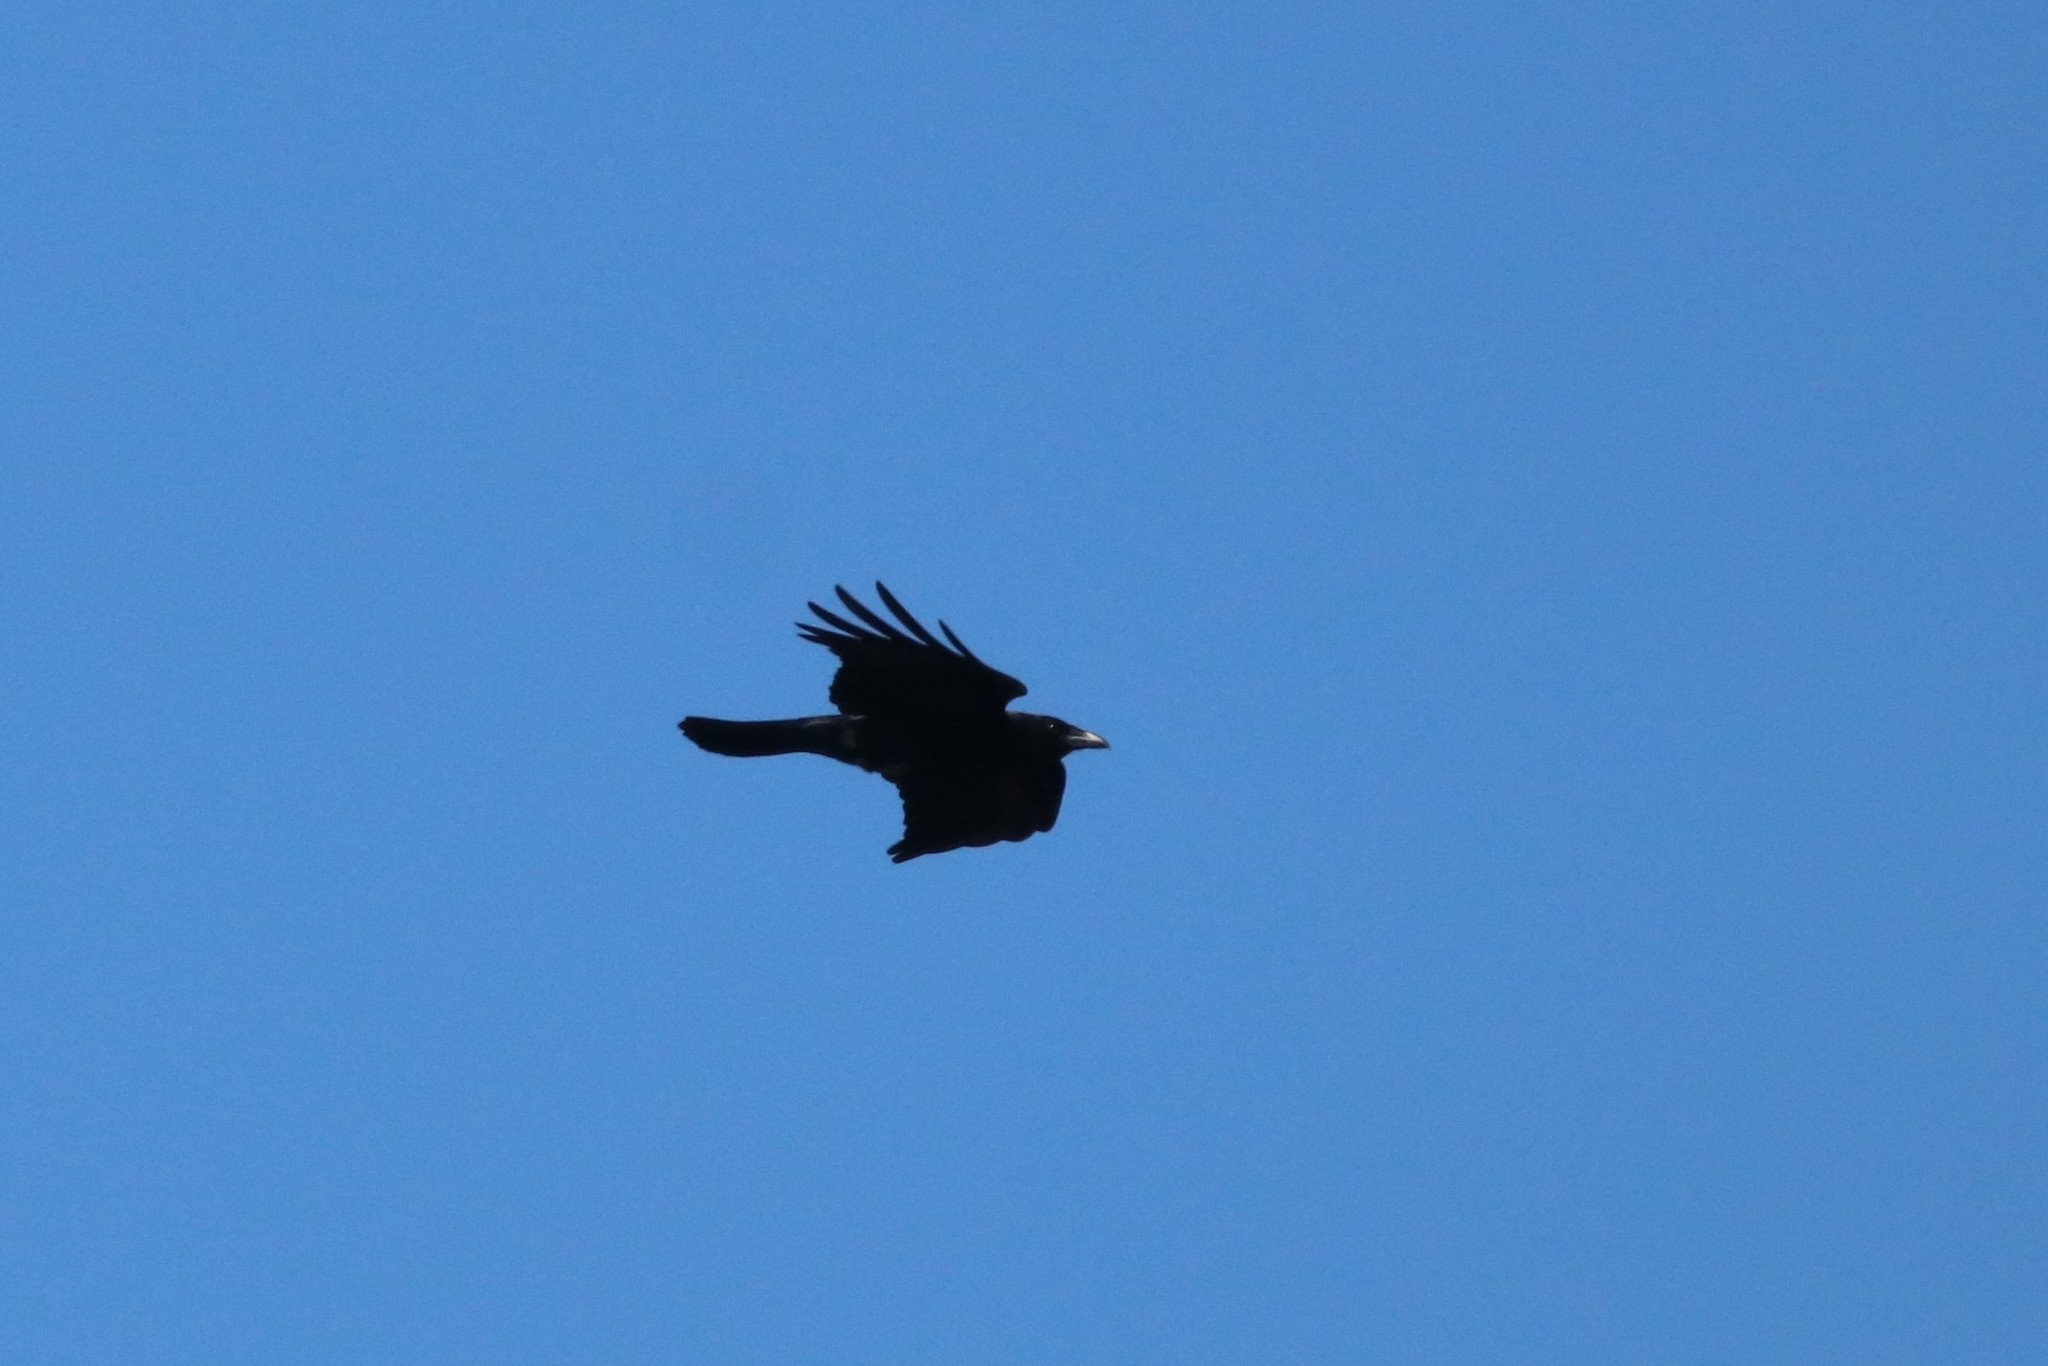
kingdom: Animalia
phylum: Chordata
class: Aves
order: Passeriformes
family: Corvidae
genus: Corvus
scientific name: Corvus brachyrhynchos
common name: American crow
